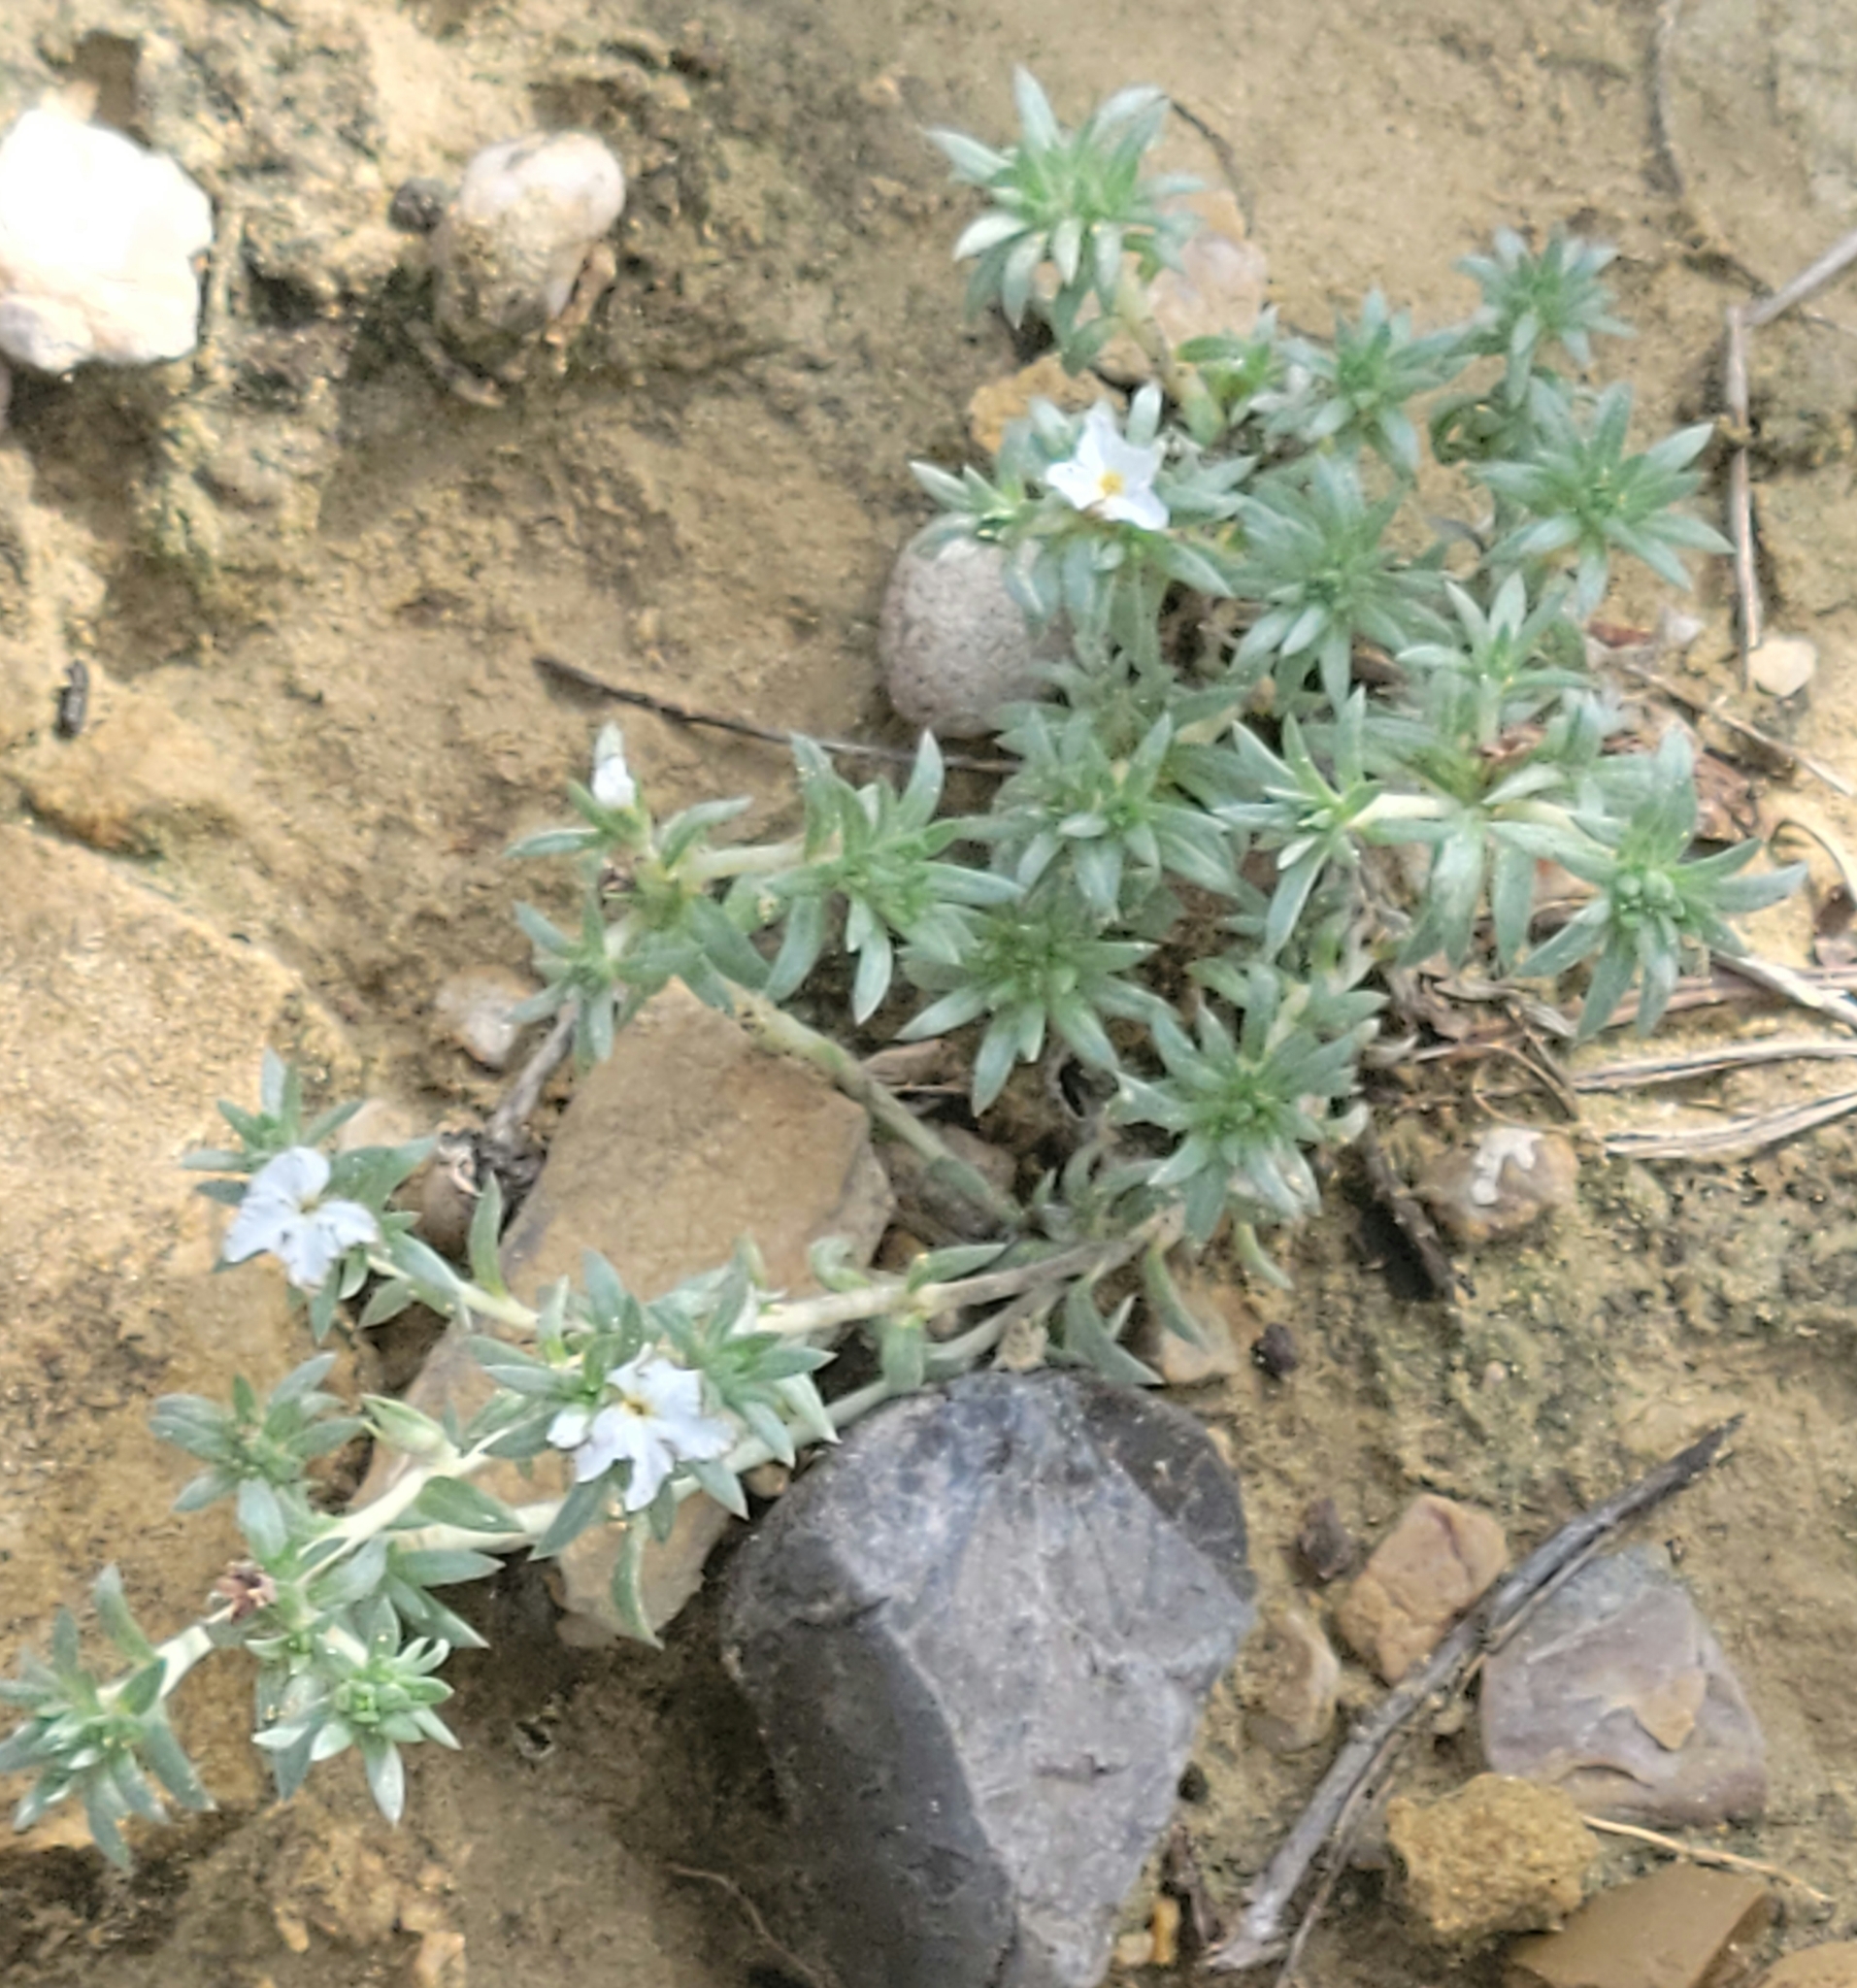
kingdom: Plantae
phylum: Tracheophyta
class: Magnoliopsida
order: Boraginales
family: Heliotropiaceae
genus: Euploca
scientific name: Euploca confertifolia
